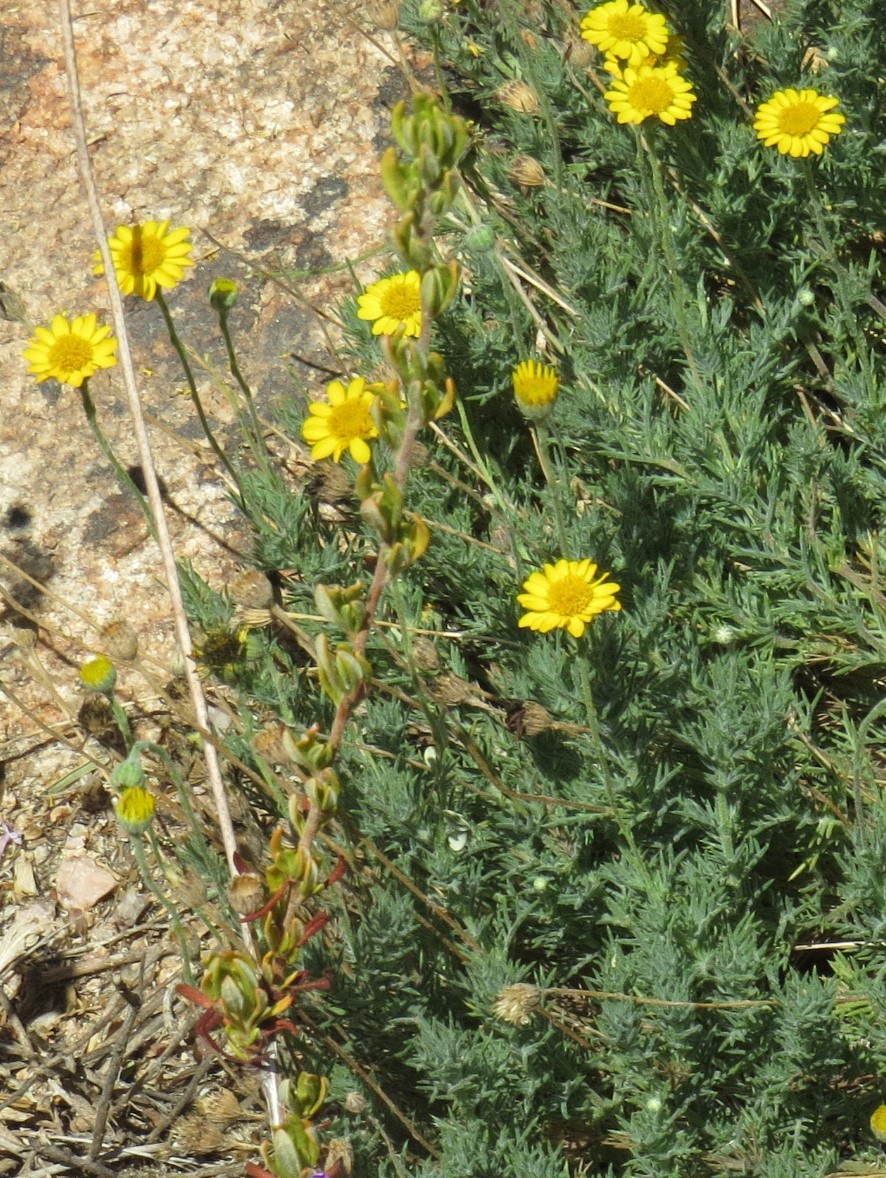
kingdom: Plantae
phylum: Tracheophyta
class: Magnoliopsida
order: Asterales
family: Asteraceae
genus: Thymophylla
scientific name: Thymophylla pentachaeta
